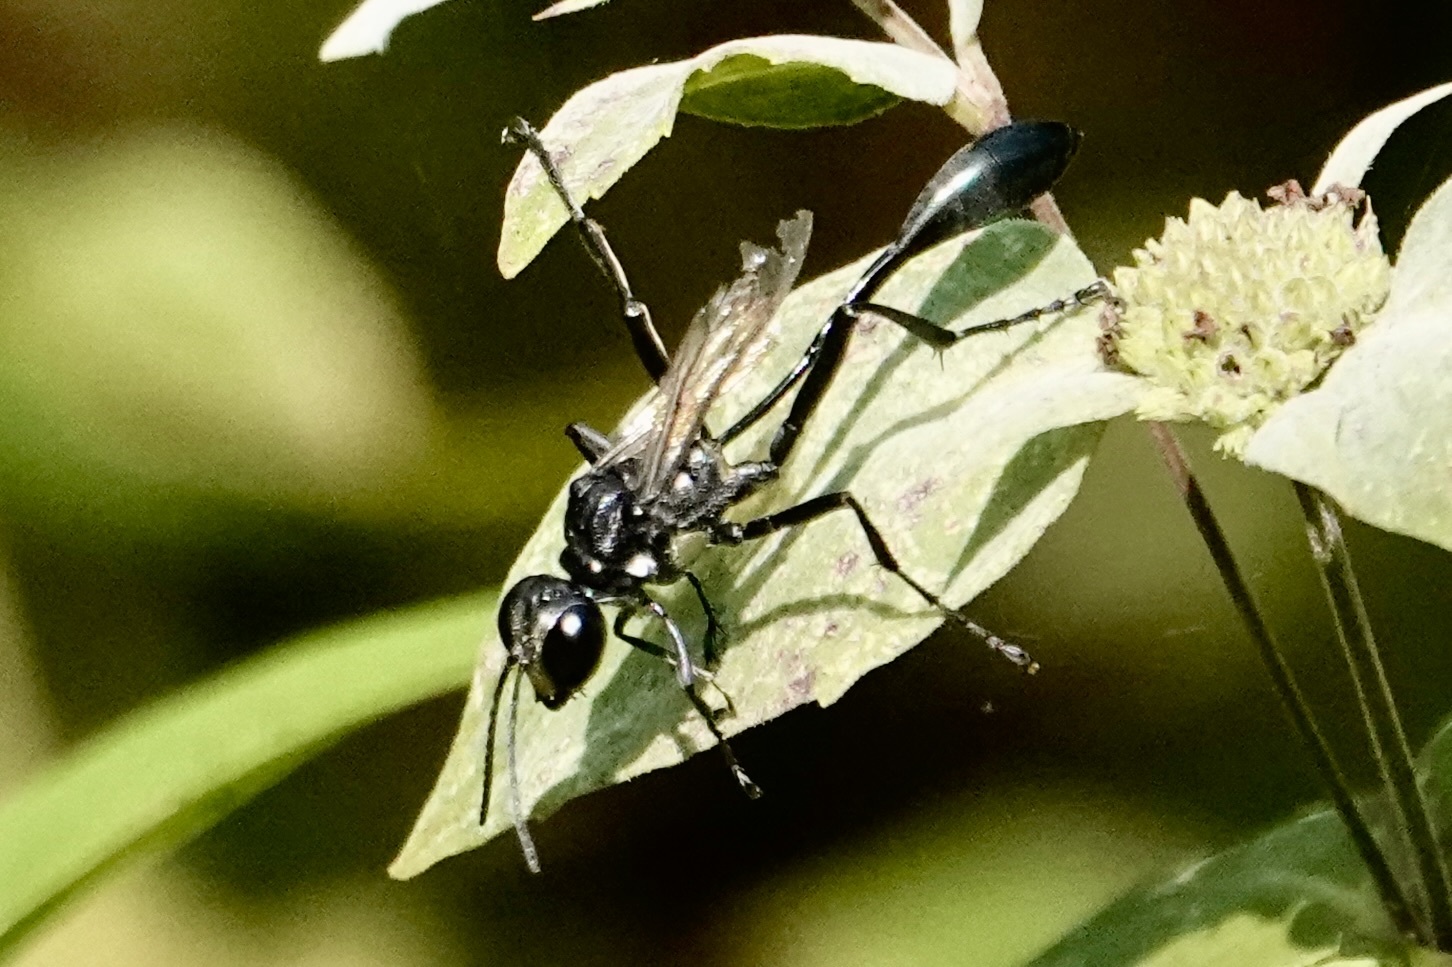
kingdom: Animalia
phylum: Arthropoda
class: Insecta
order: Hymenoptera
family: Sphecidae
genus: Eremnophila
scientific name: Eremnophila aureonotata
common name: Gold-marked thread-waisted wasp
